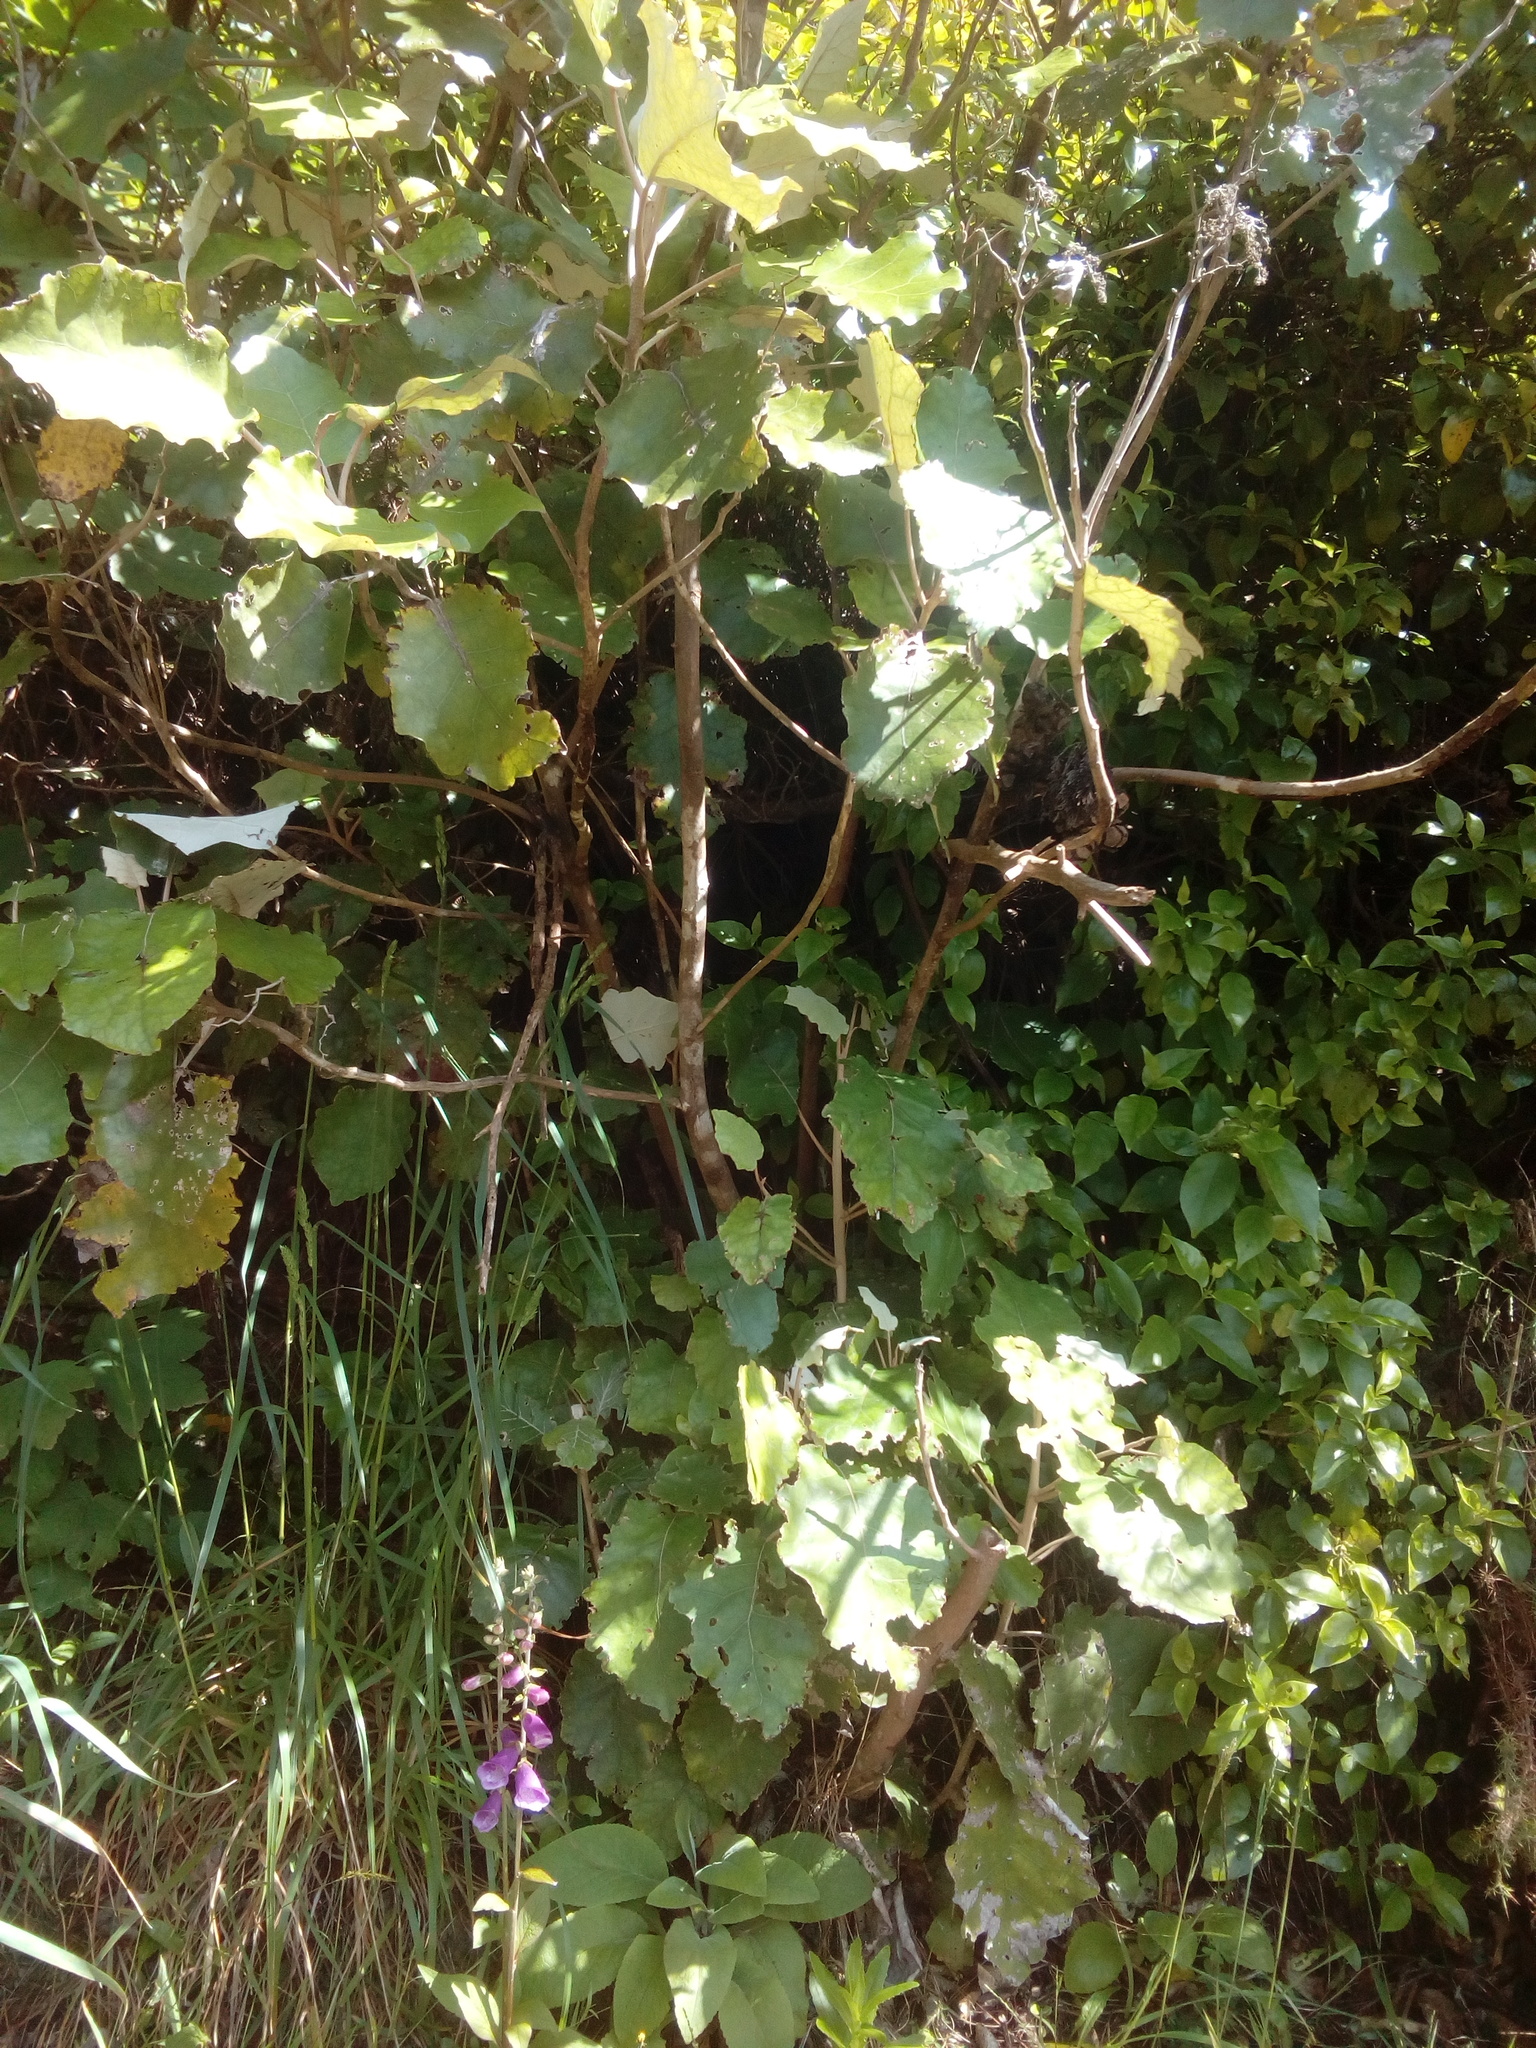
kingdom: Plantae
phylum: Tracheophyta
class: Magnoliopsida
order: Asterales
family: Asteraceae
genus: Brachyglottis
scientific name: Brachyglottis repanda
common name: Hedge ragwort
